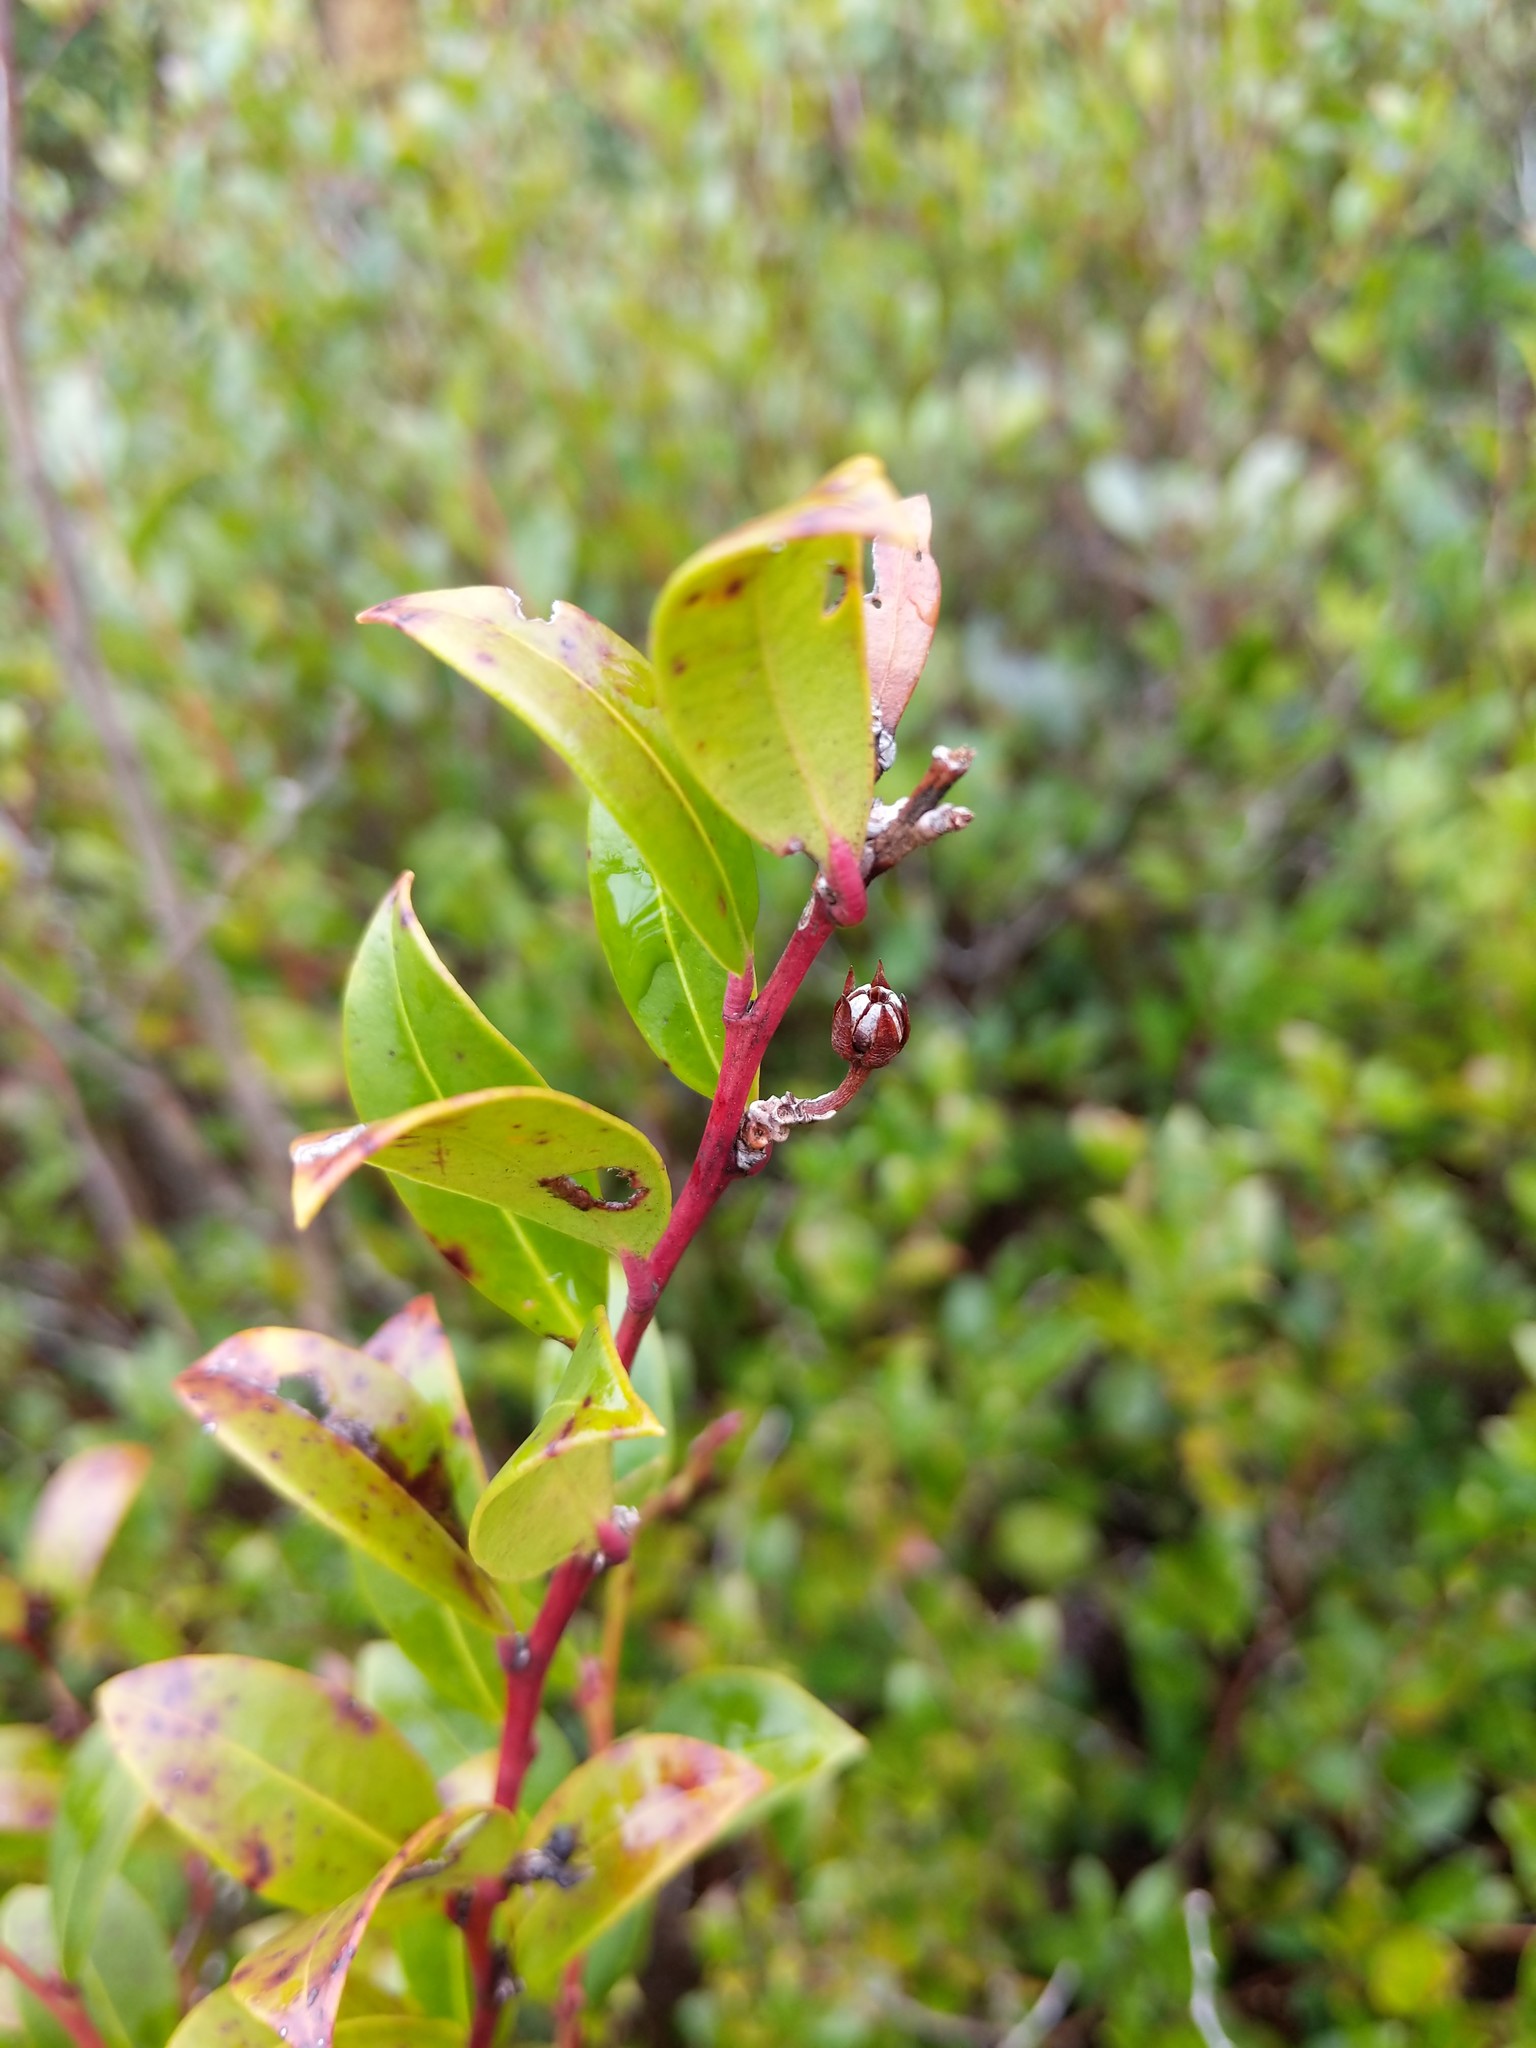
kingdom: Plantae
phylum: Tracheophyta
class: Magnoliopsida
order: Ericales
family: Ericaceae
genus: Lyonia
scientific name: Lyonia lucida
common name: Fetterbush
